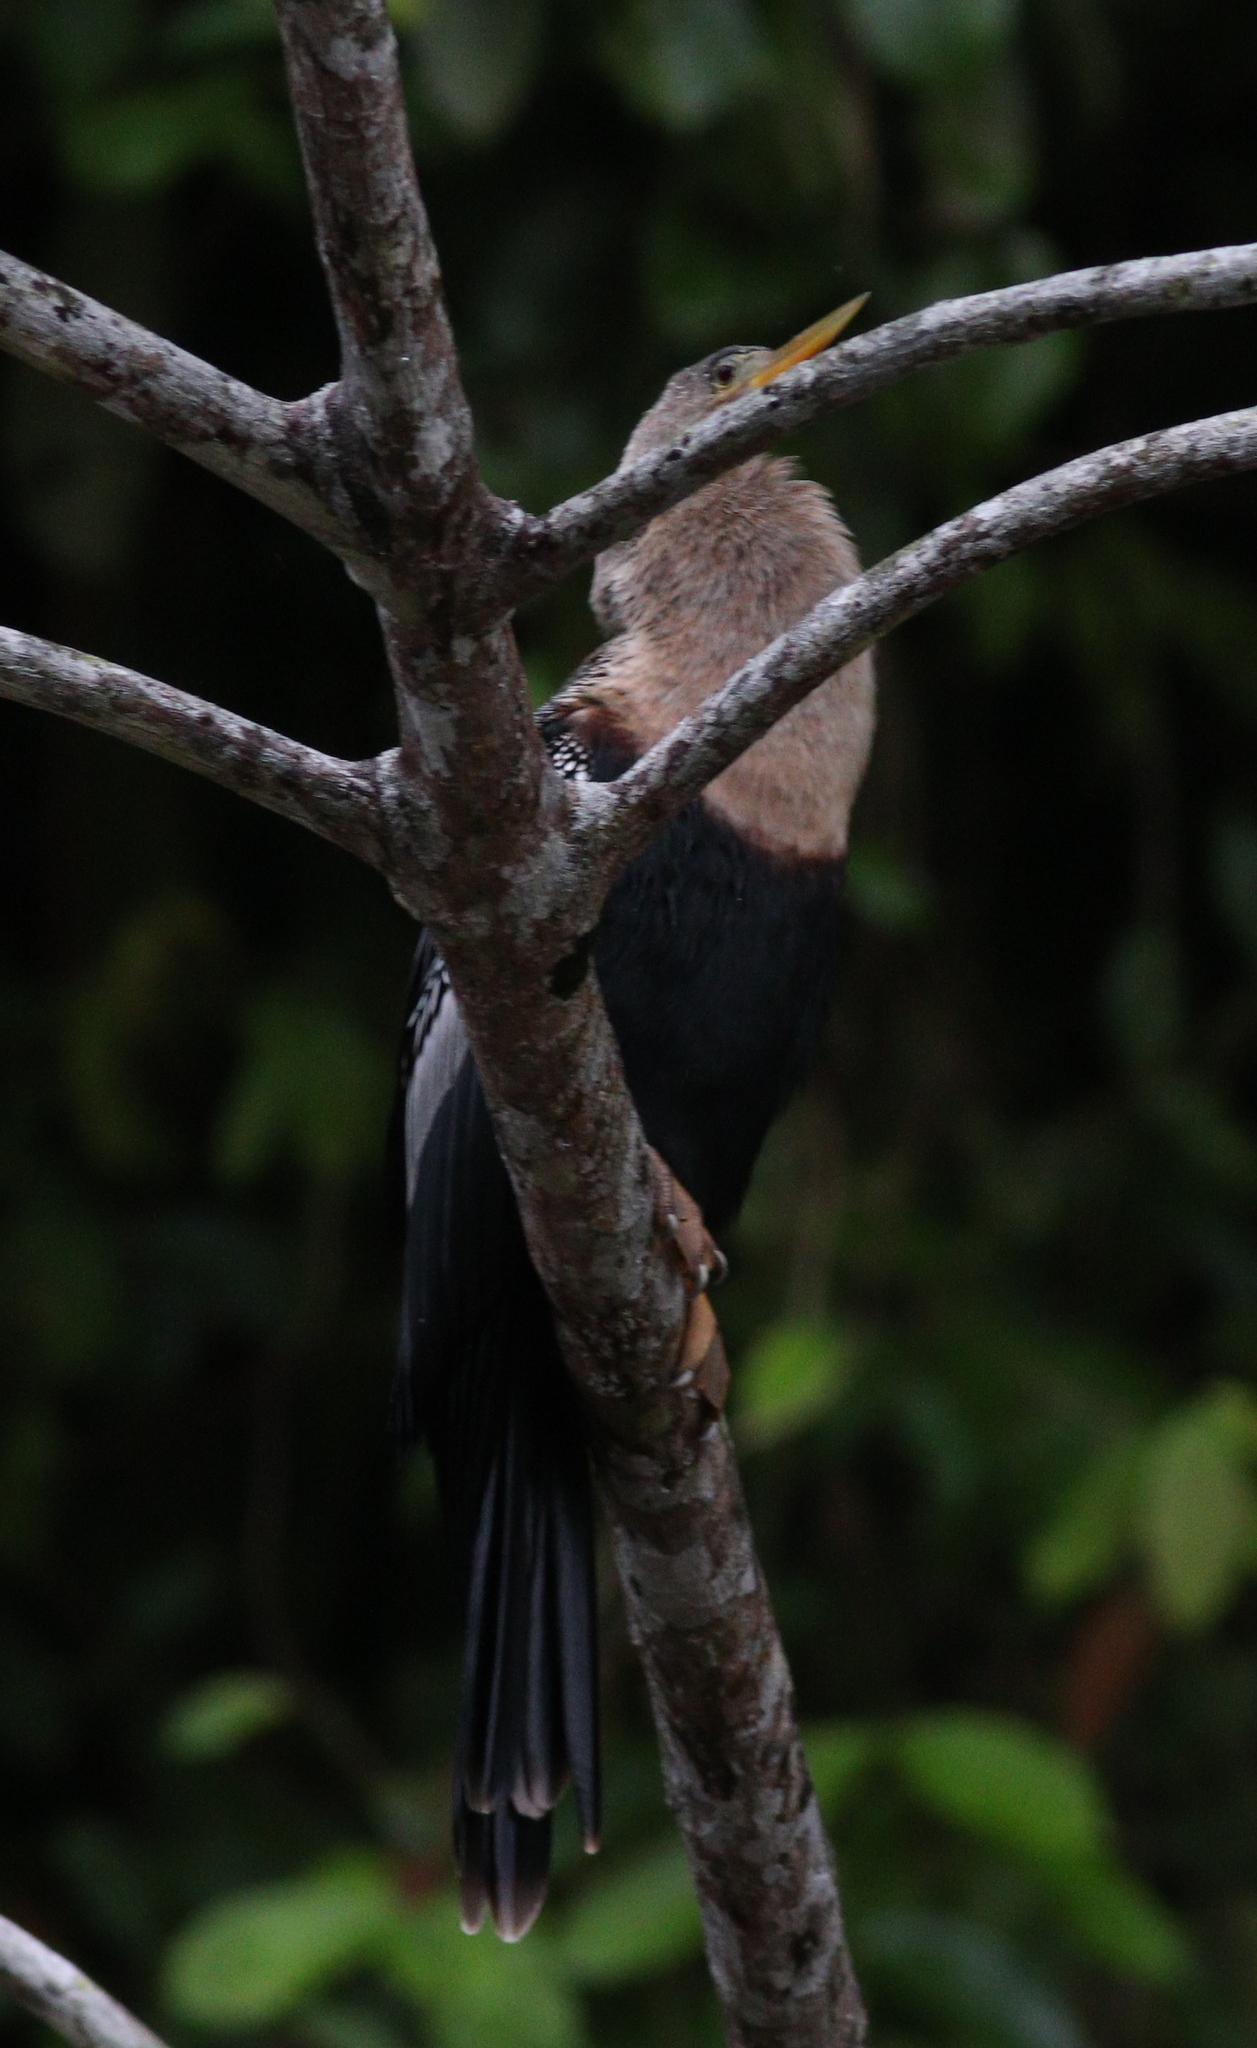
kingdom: Animalia
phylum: Chordata
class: Aves
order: Suliformes
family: Anhingidae
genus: Anhinga
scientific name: Anhinga anhinga
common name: Anhinga
